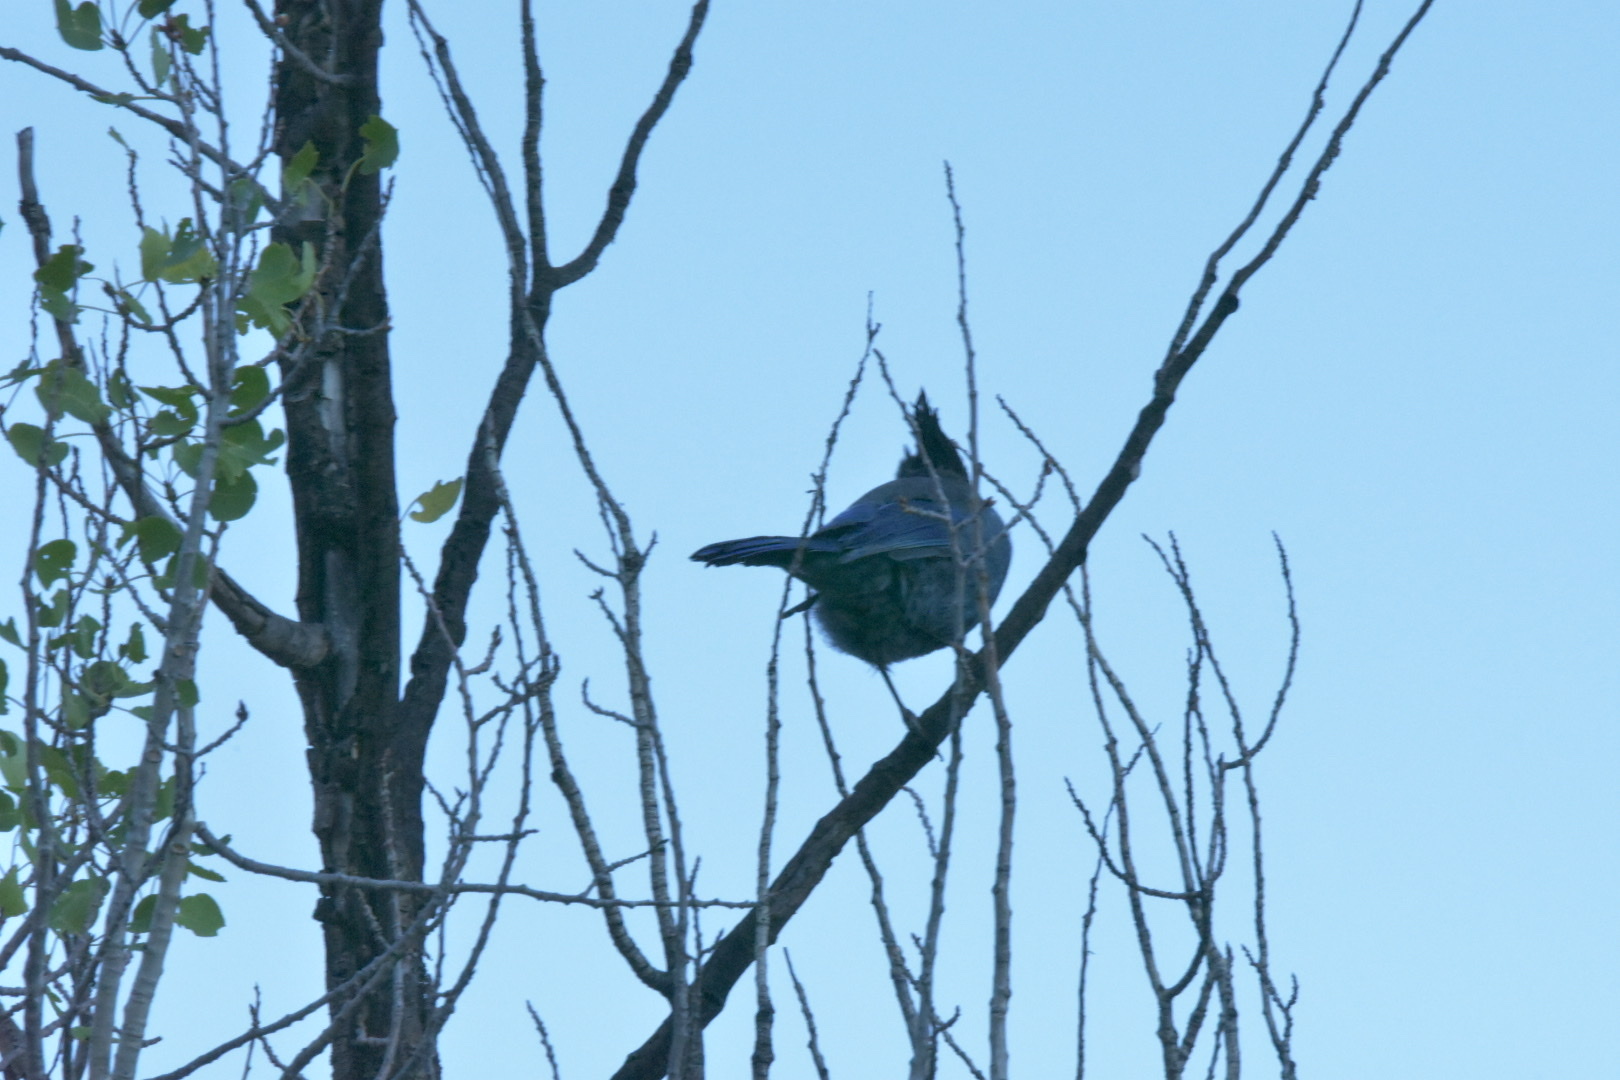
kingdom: Animalia
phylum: Chordata
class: Aves
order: Passeriformes
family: Corvidae
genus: Cyanocitta
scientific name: Cyanocitta stelleri
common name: Steller's jay
